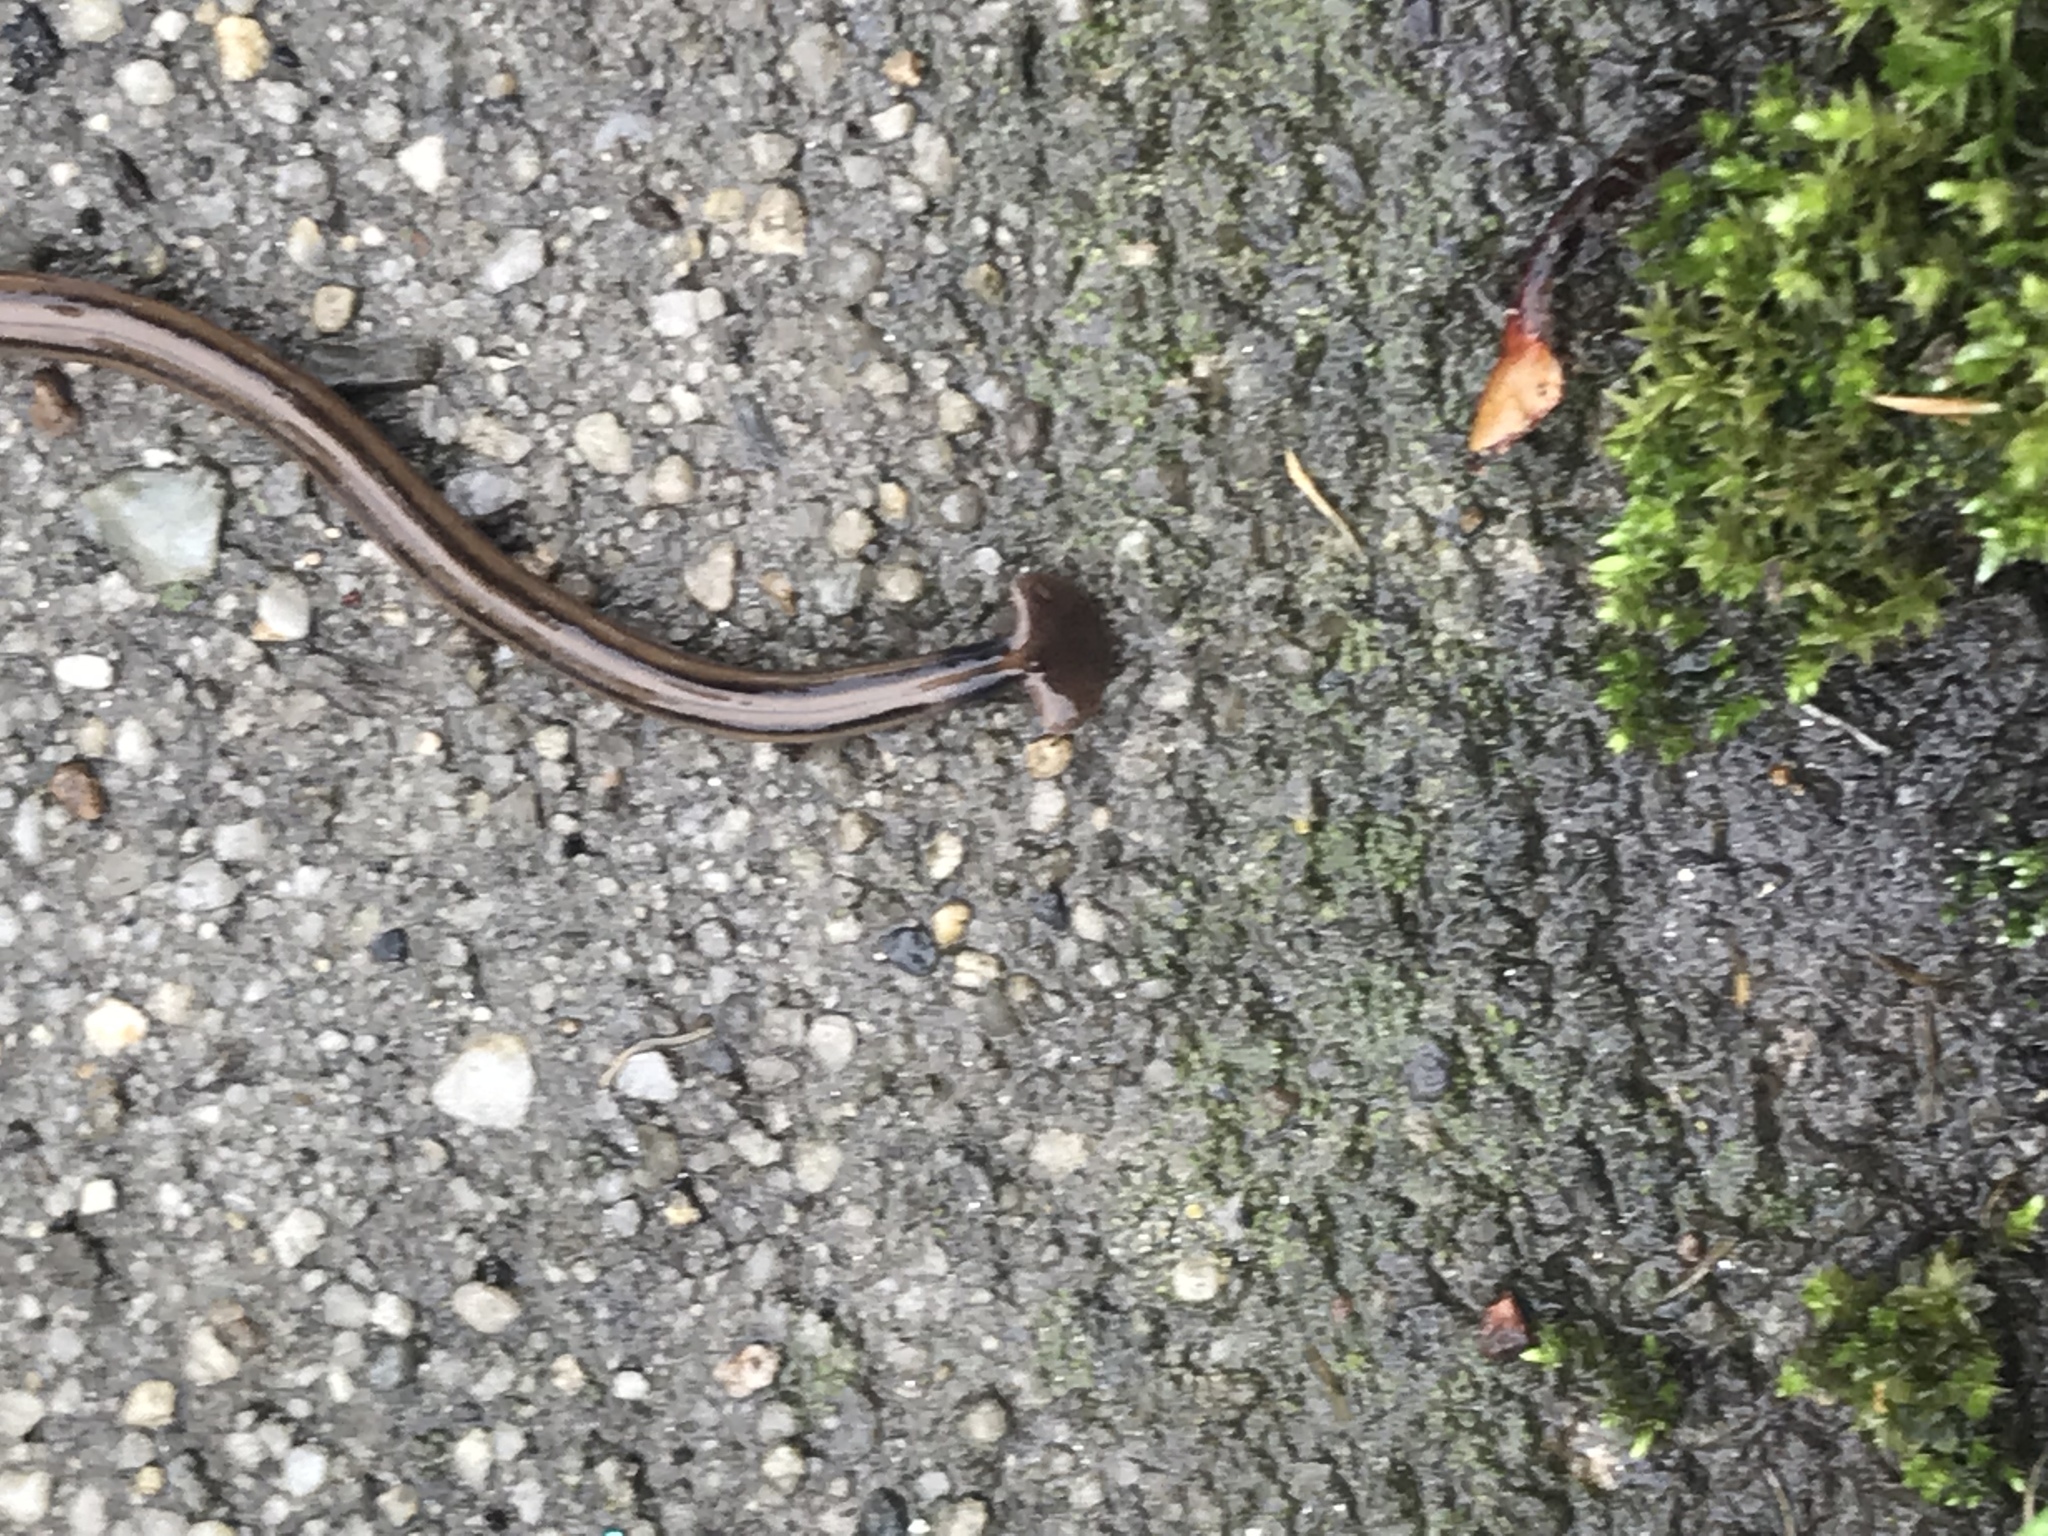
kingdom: Animalia
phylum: Platyhelminthes
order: Tricladida
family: Geoplanidae
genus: Bipalium
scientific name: Bipalium kewense
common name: Hammerhead flatworm
